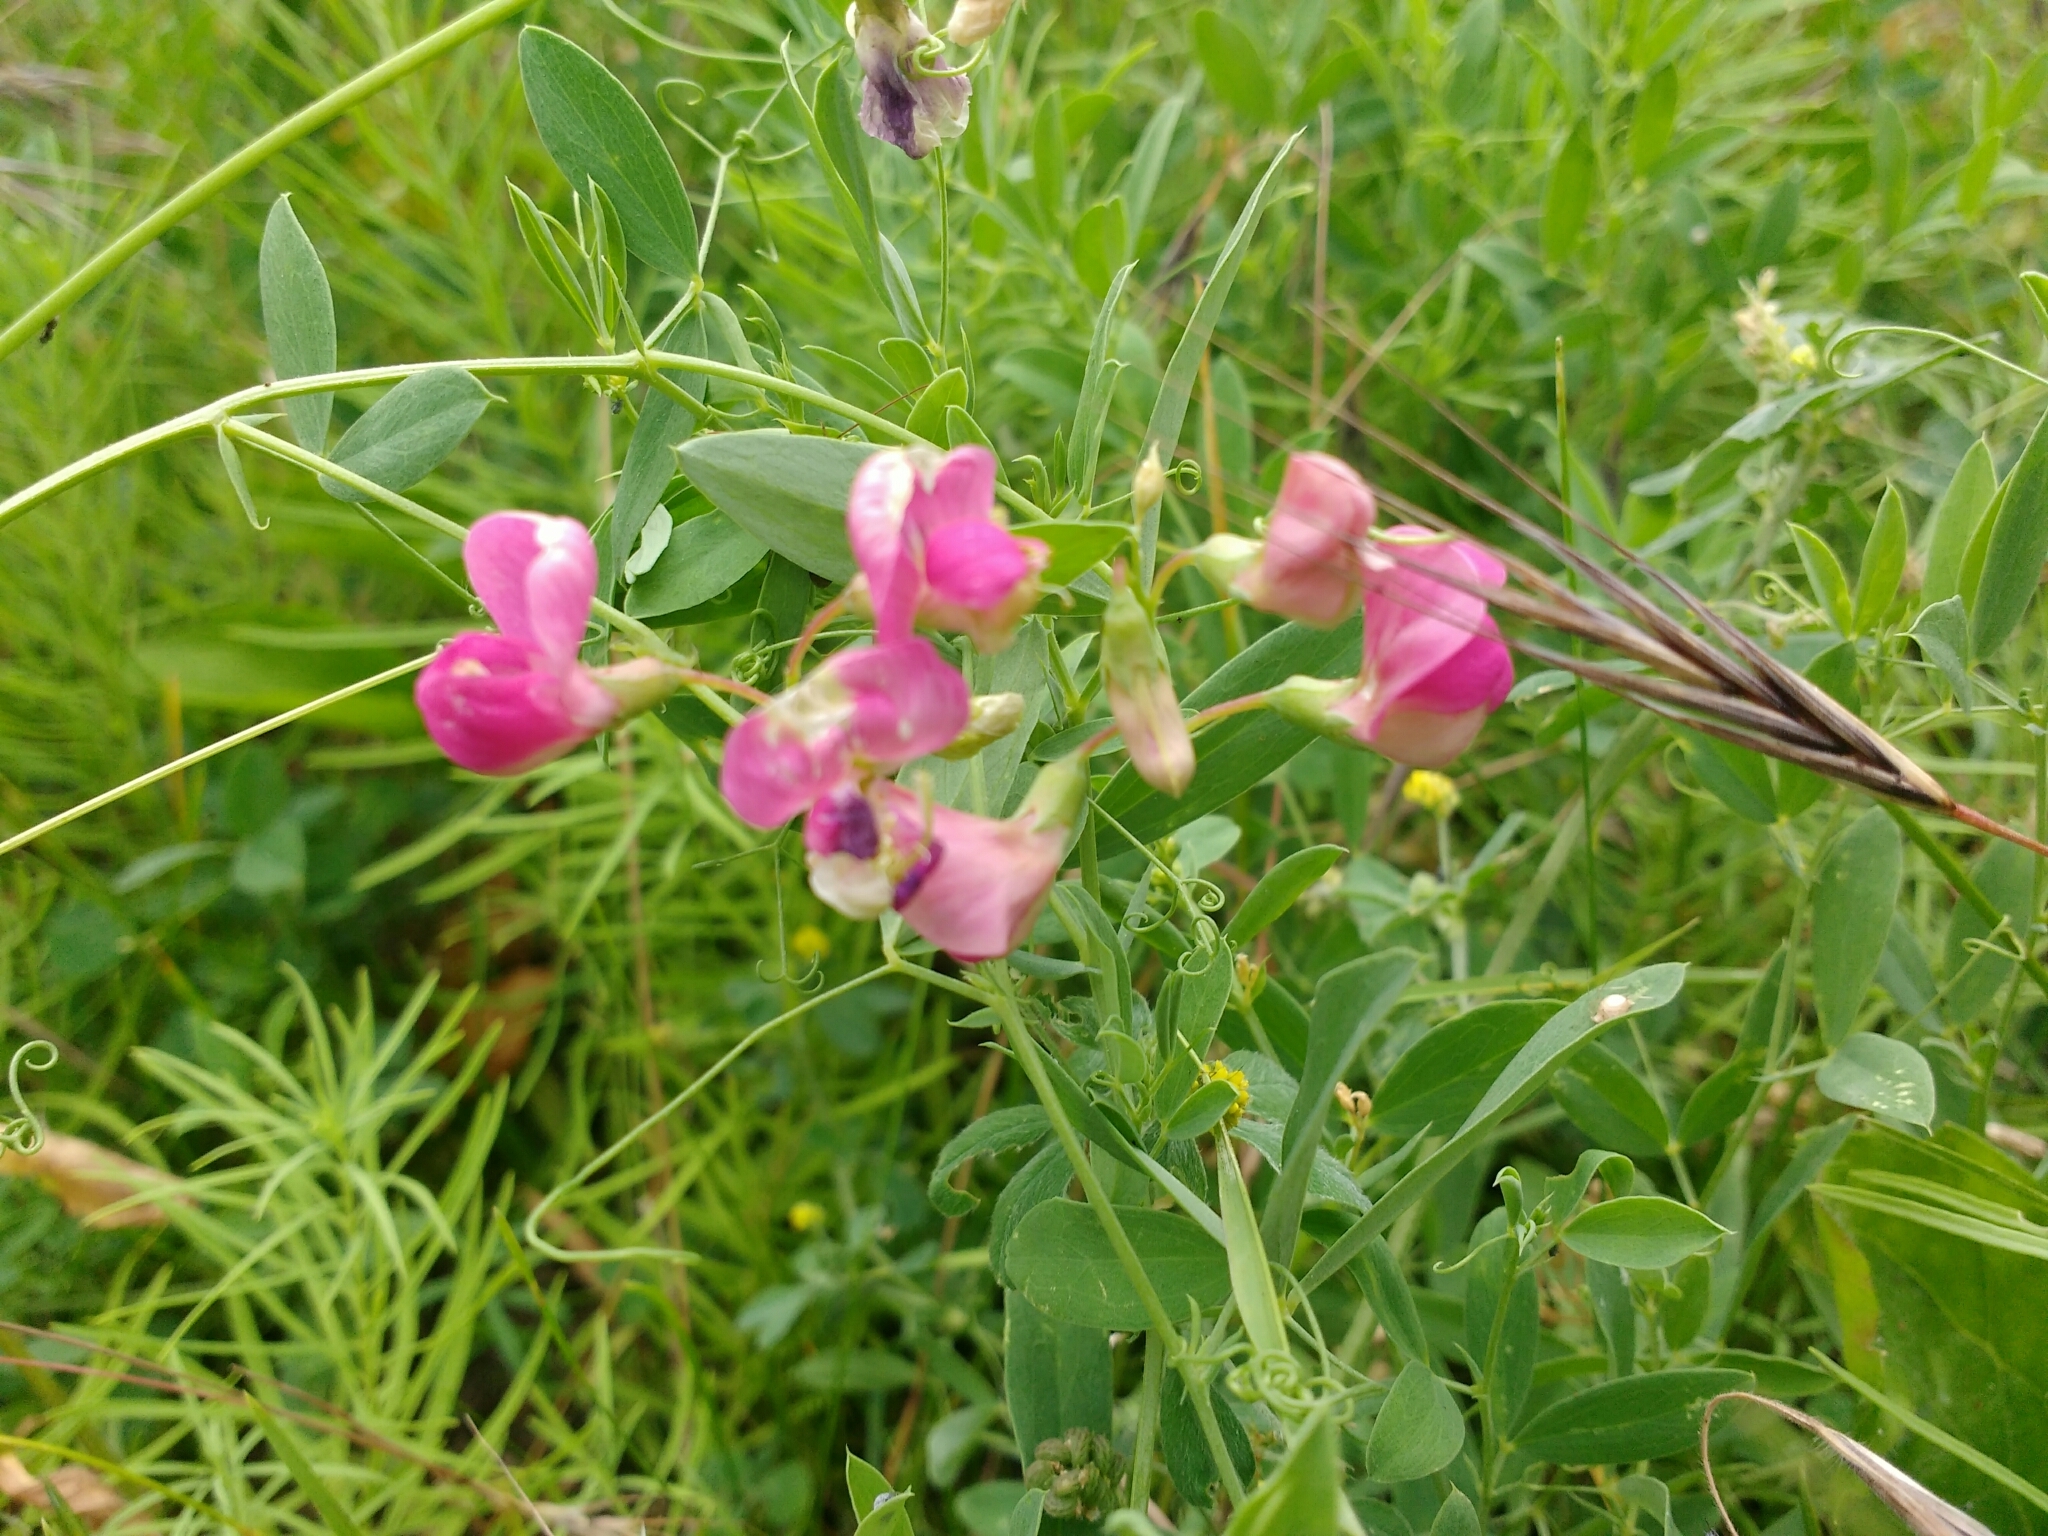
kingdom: Plantae
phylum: Tracheophyta
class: Magnoliopsida
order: Fabales
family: Fabaceae
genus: Lathyrus
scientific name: Lathyrus tuberosus
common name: Tuberous pea
